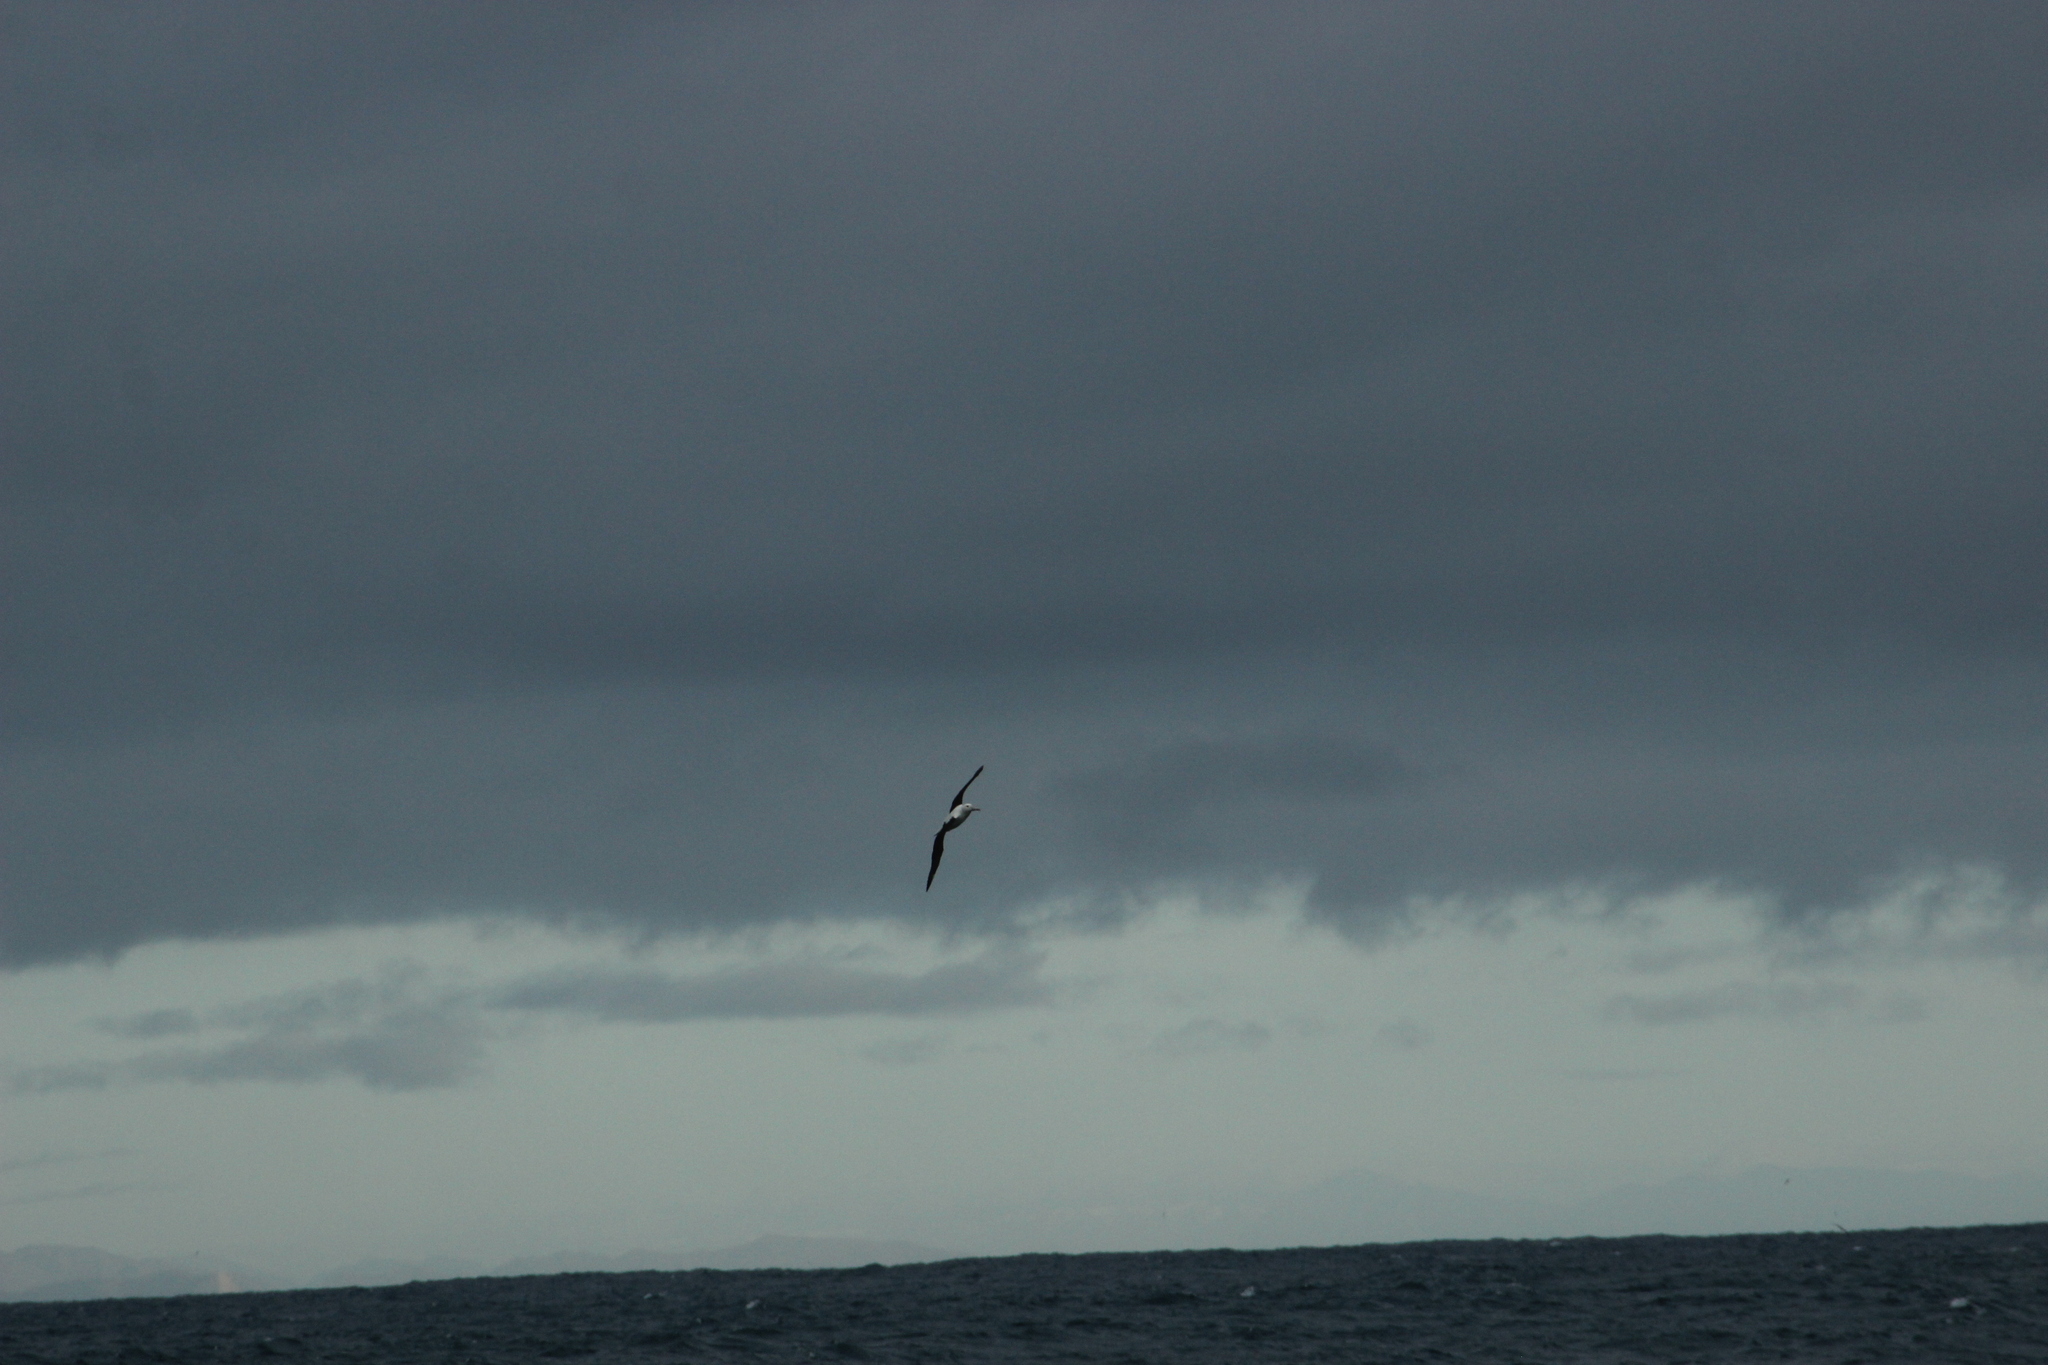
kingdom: Animalia
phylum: Chordata
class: Aves
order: Procellariiformes
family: Diomedeidae
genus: Diomedea
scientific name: Diomedea sanfordi
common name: Northern royal albatross
